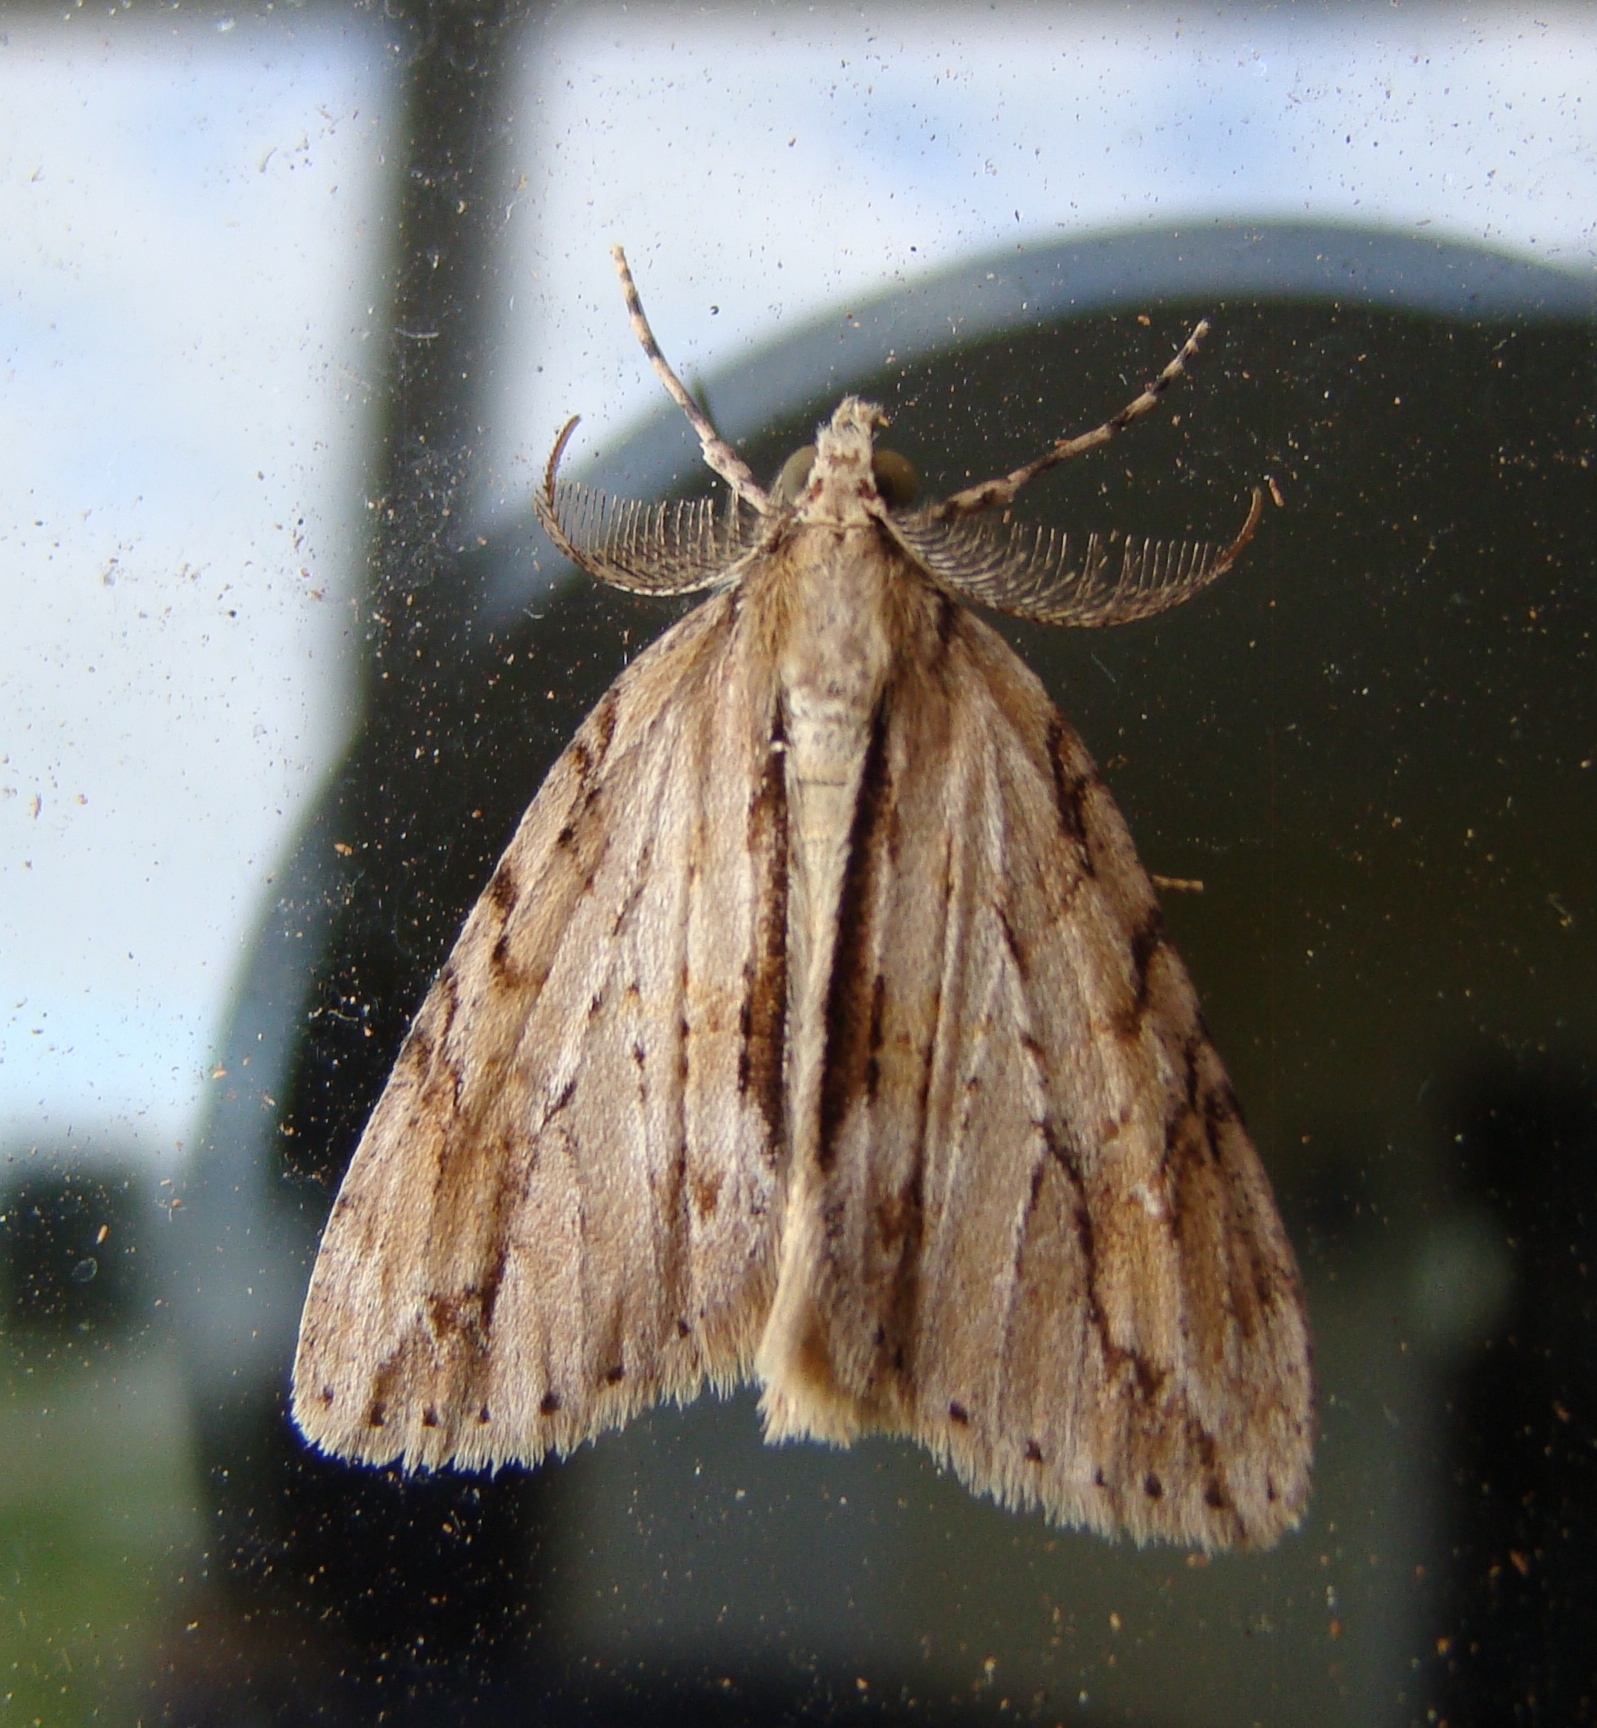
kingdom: Animalia
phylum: Arthropoda
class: Insecta
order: Lepidoptera
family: Geometridae
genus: Pseudocoremia
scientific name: Pseudocoremia lupinata
